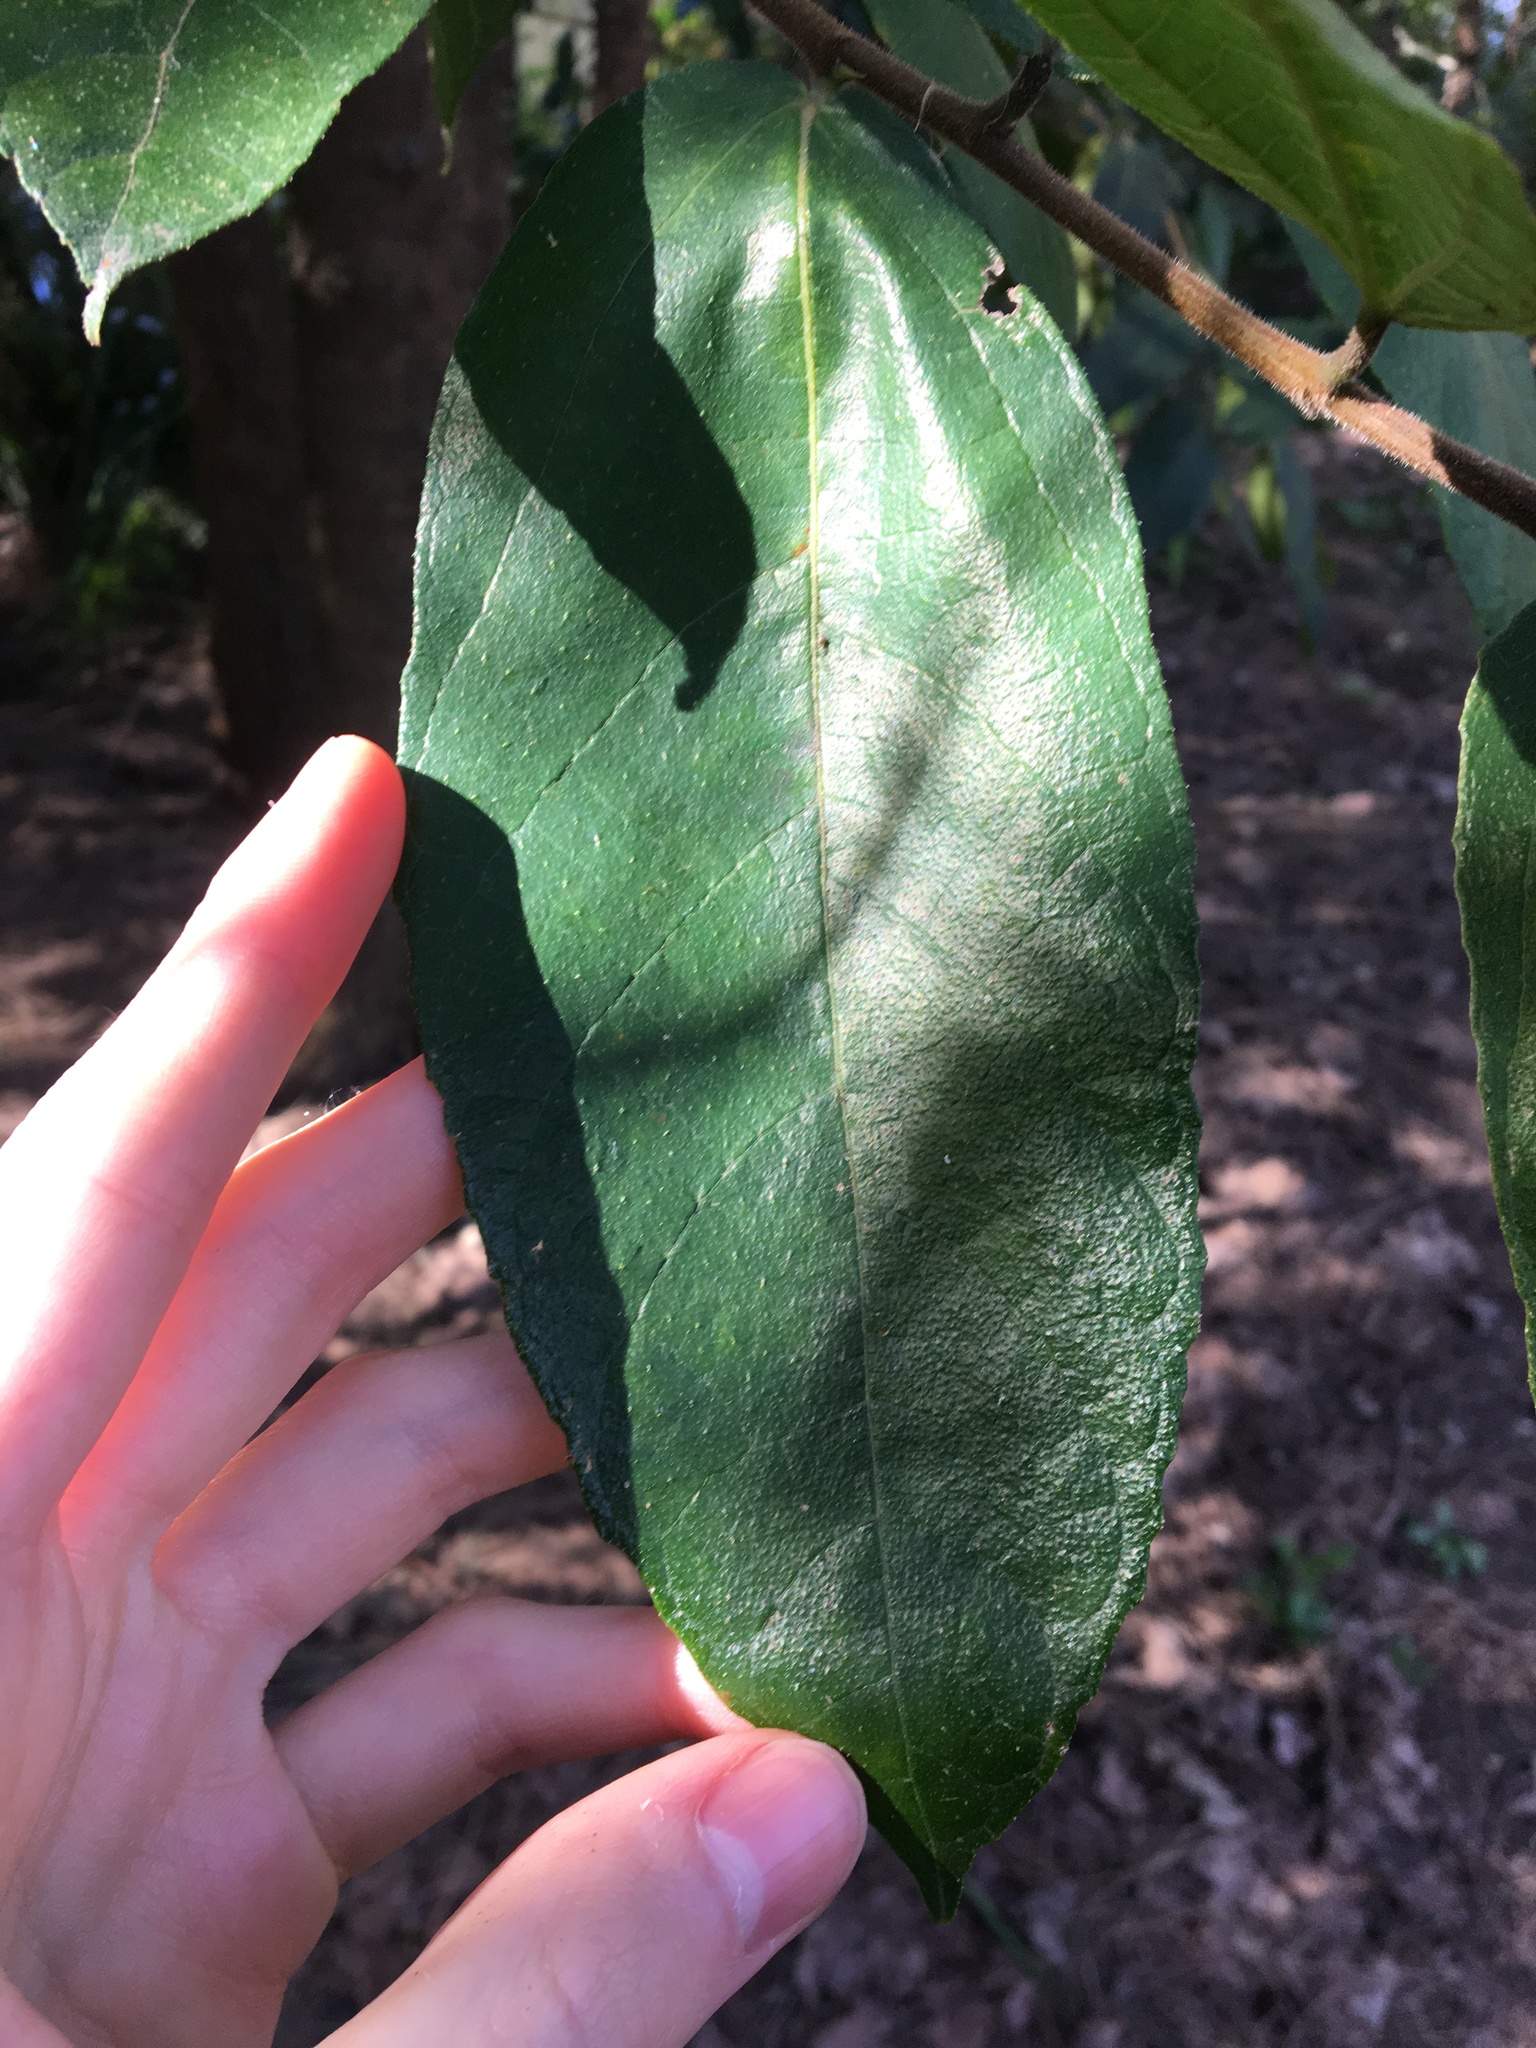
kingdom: Plantae
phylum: Tracheophyta
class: Magnoliopsida
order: Rosales
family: Moraceae
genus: Ficus
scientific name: Ficus coronata
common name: Creek sandpaper fig
